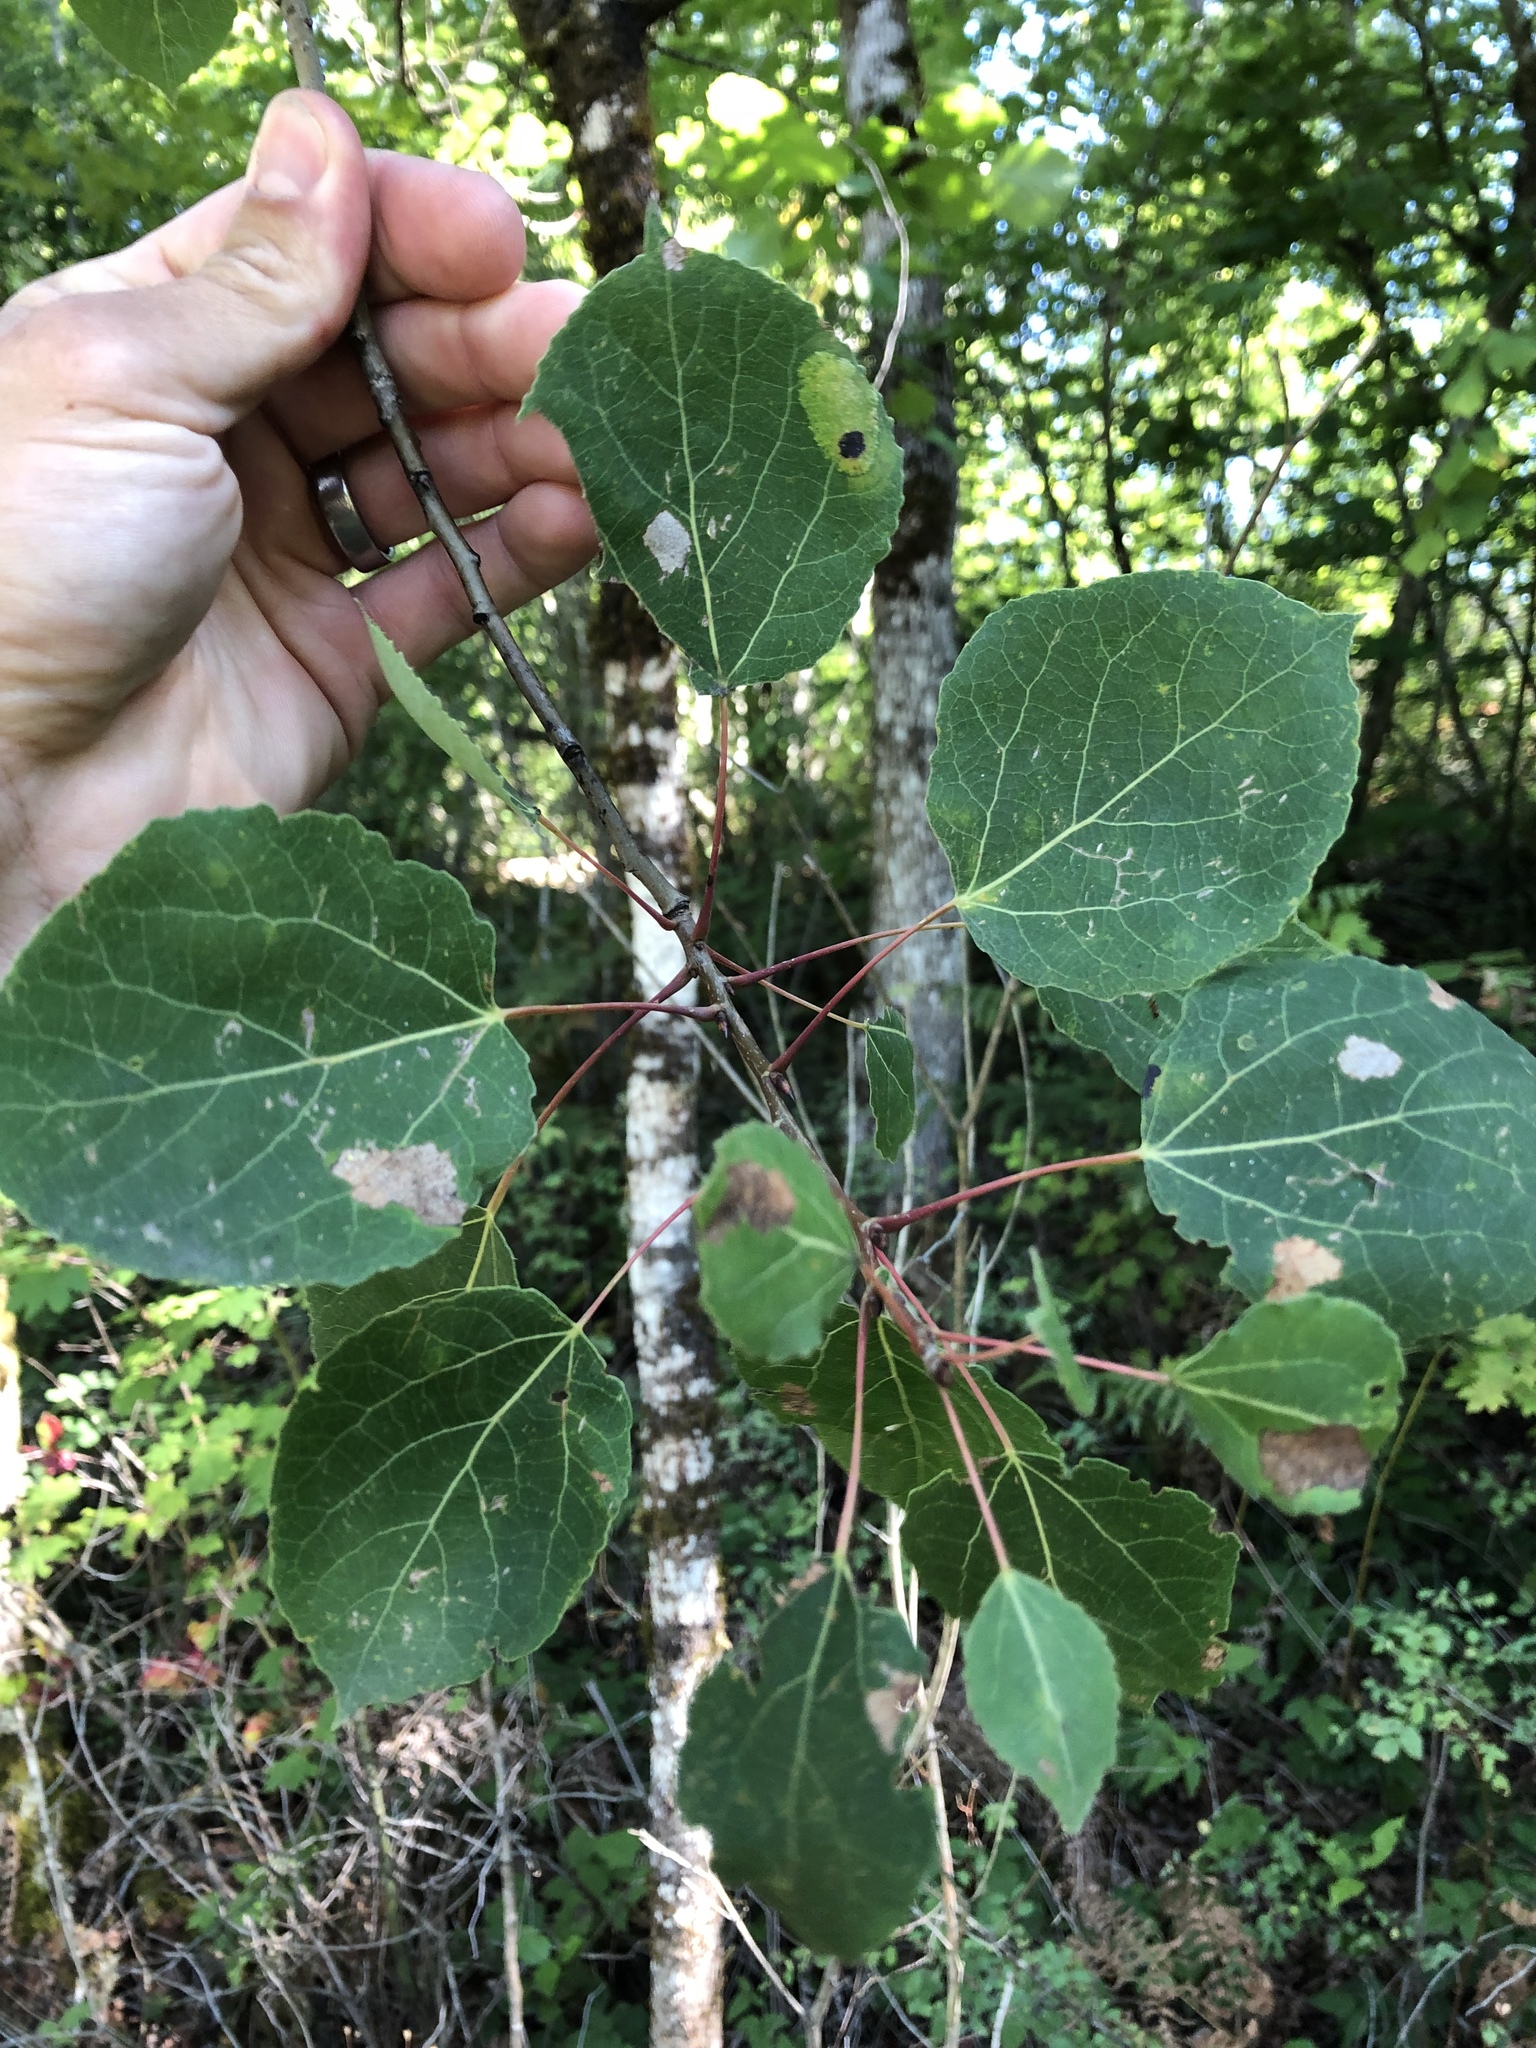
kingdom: Plantae
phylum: Tracheophyta
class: Magnoliopsida
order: Malpighiales
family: Salicaceae
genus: Populus
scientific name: Populus tremuloides
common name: Quaking aspen
